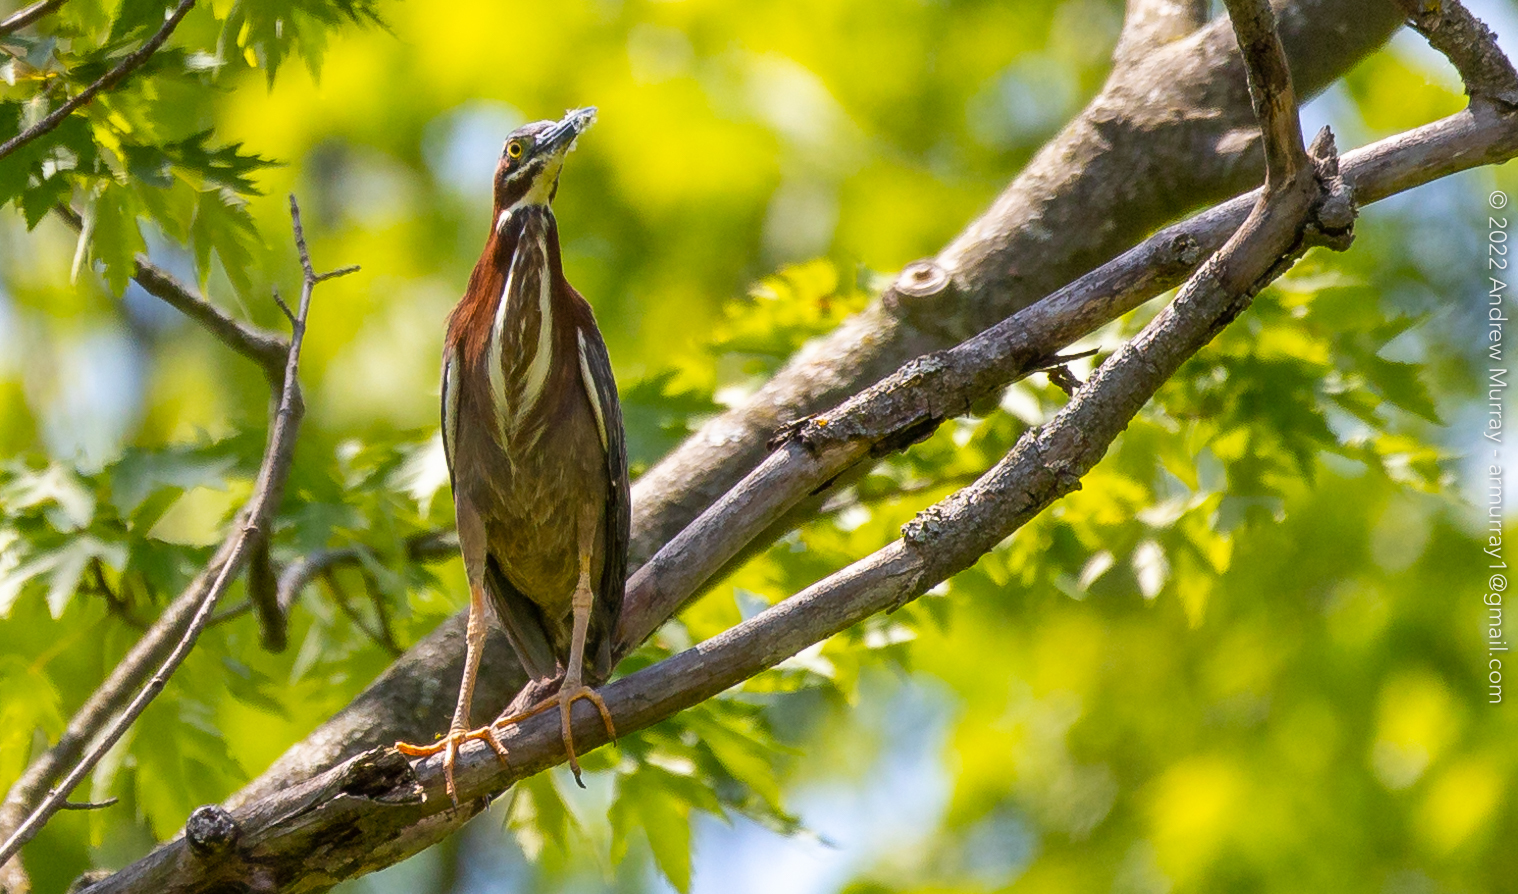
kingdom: Animalia
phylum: Chordata
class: Aves
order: Pelecaniformes
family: Ardeidae
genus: Butorides
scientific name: Butorides virescens
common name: Green heron
